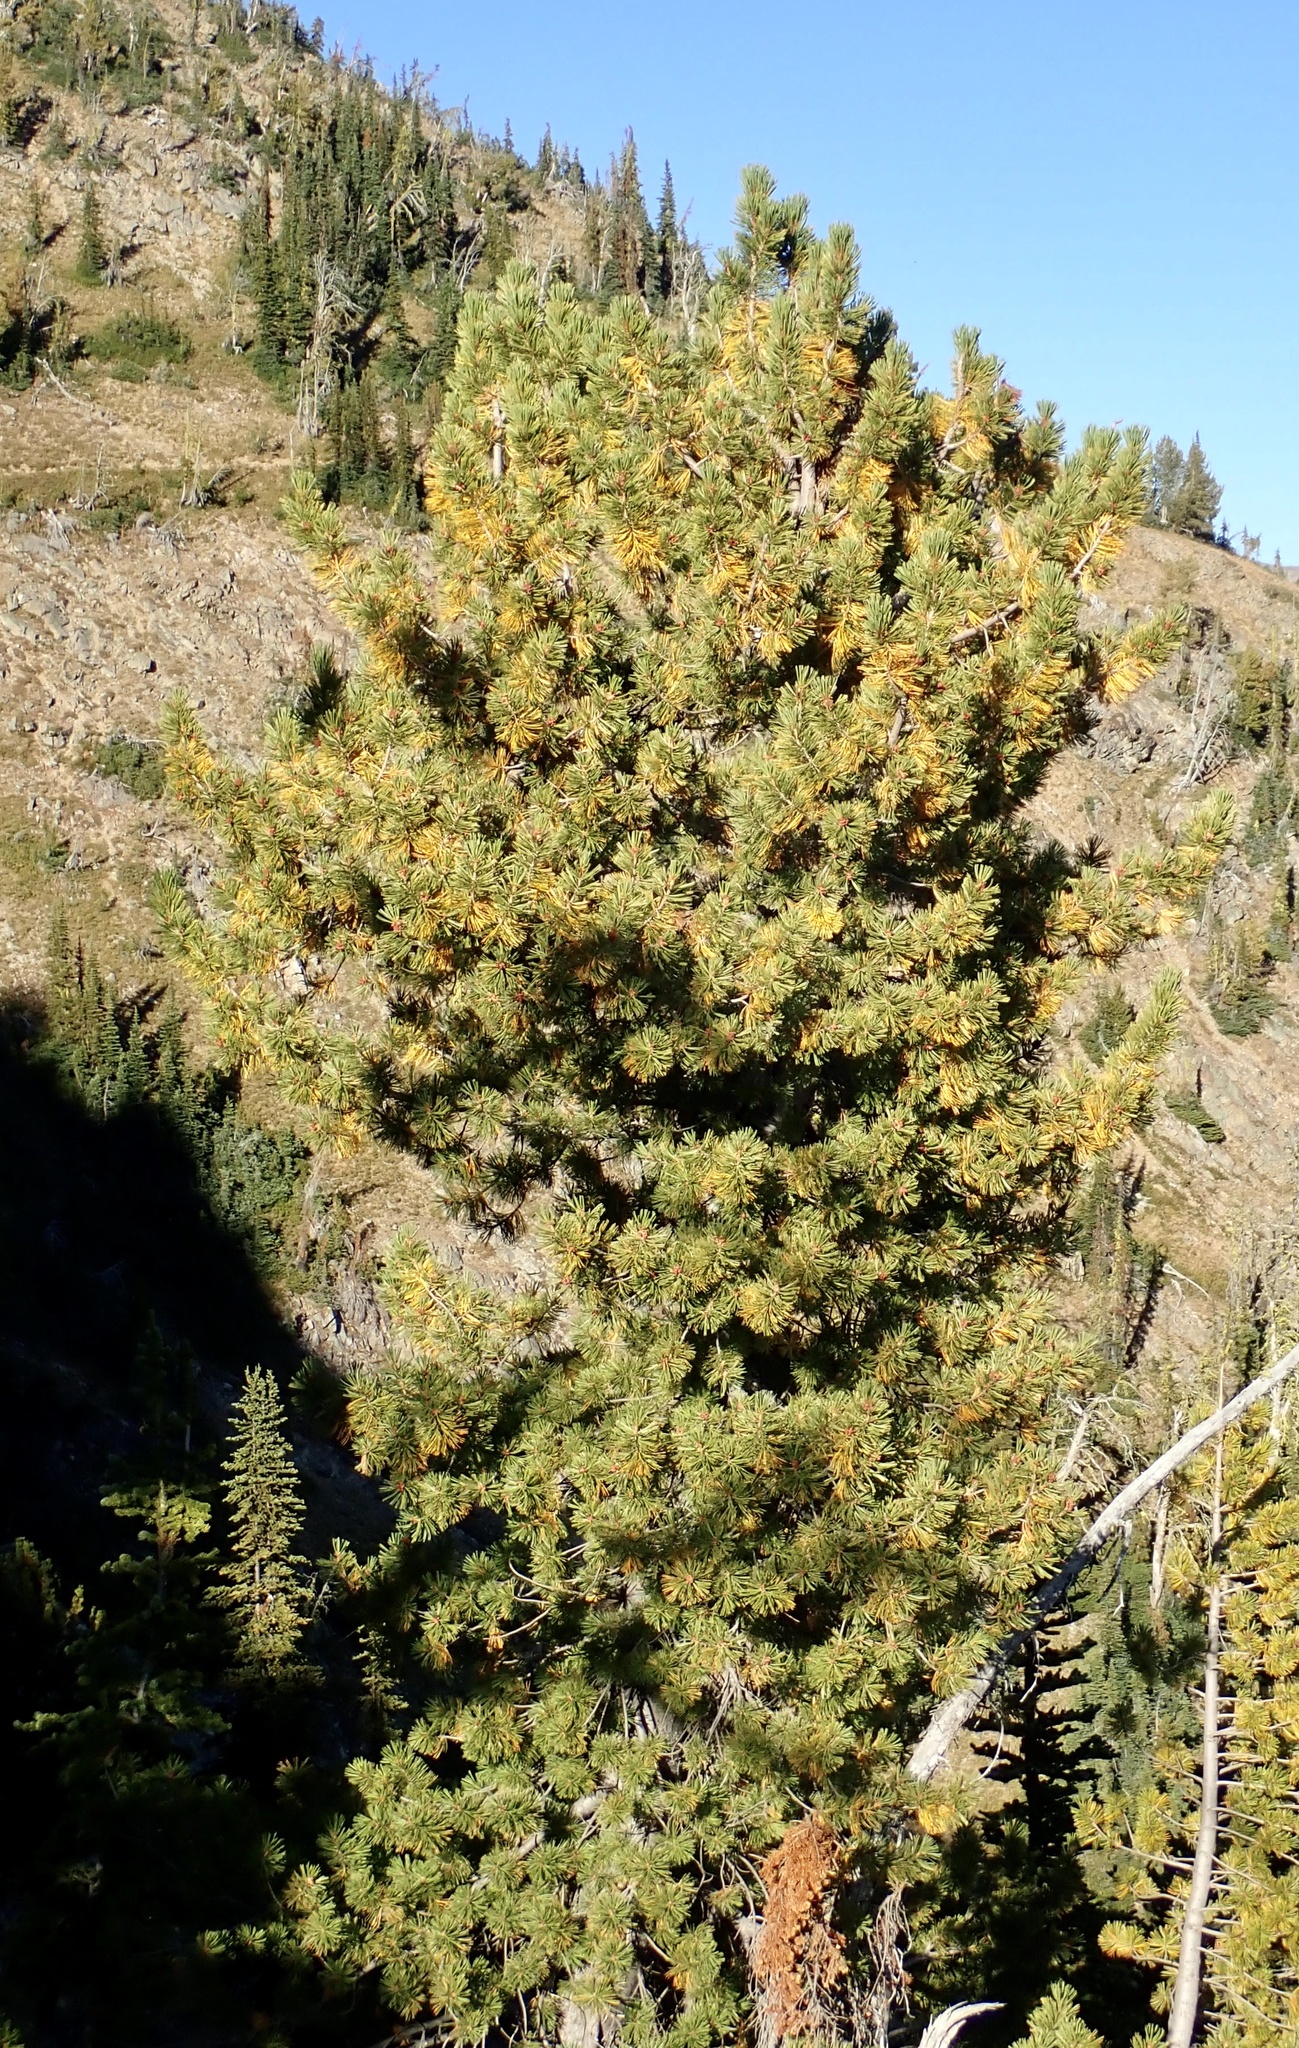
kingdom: Plantae
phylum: Tracheophyta
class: Pinopsida
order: Pinales
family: Pinaceae
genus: Pinus
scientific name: Pinus albicaulis
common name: Whitebark pine
